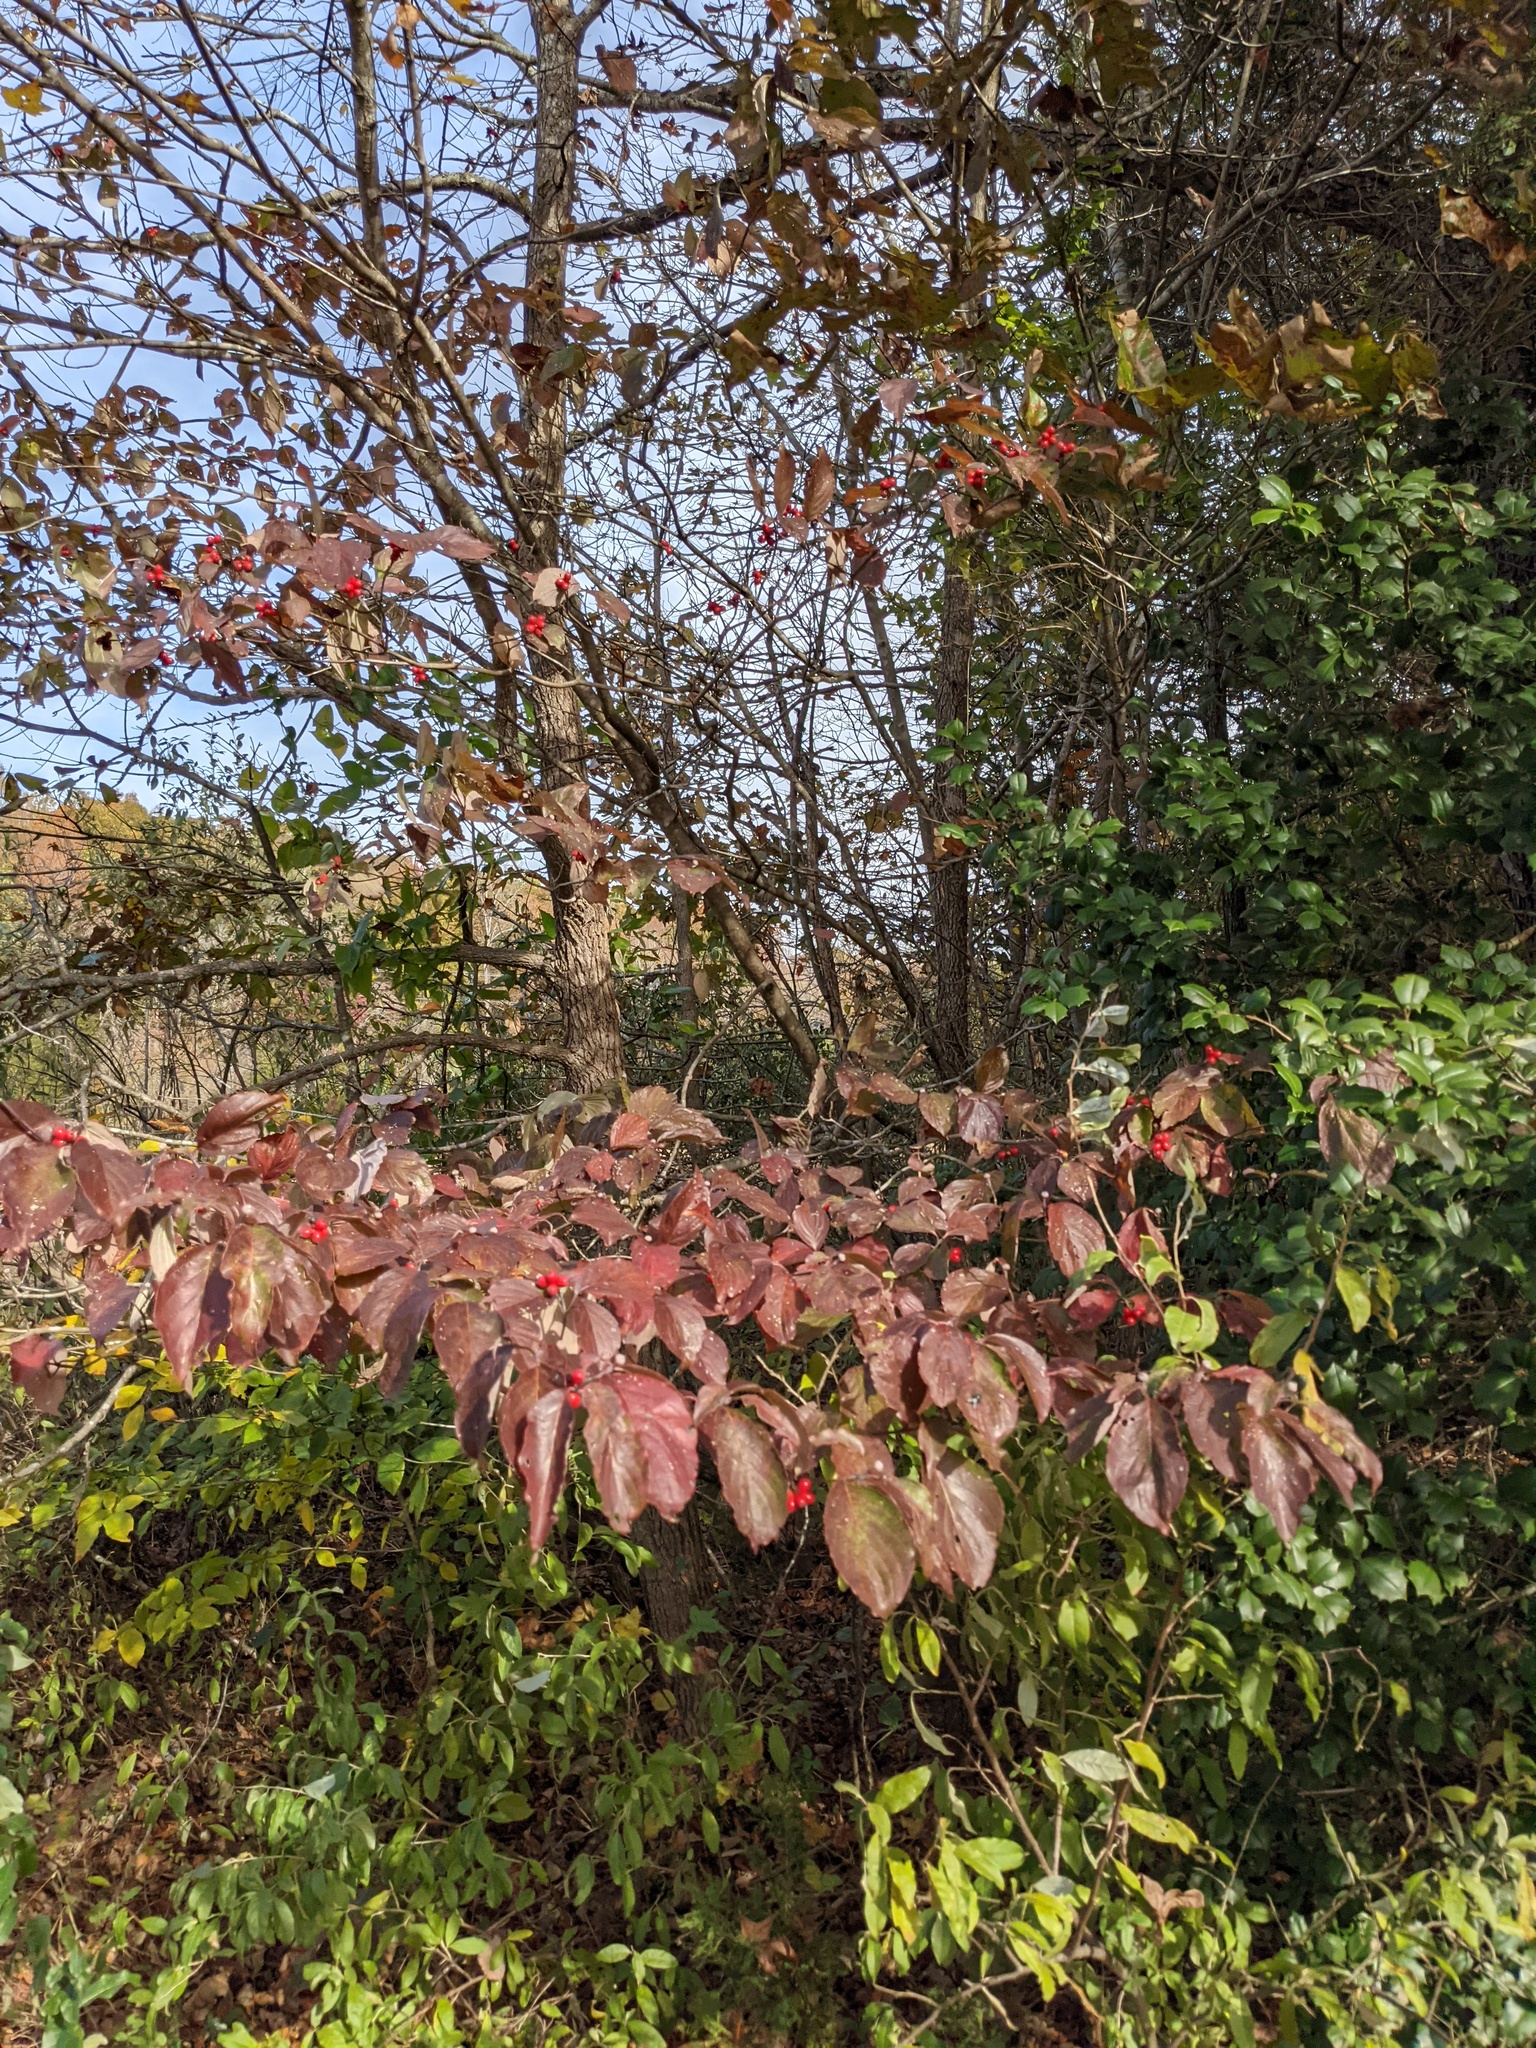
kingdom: Plantae
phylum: Tracheophyta
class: Magnoliopsida
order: Cornales
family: Cornaceae
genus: Cornus
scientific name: Cornus florida
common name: Flowering dogwood
